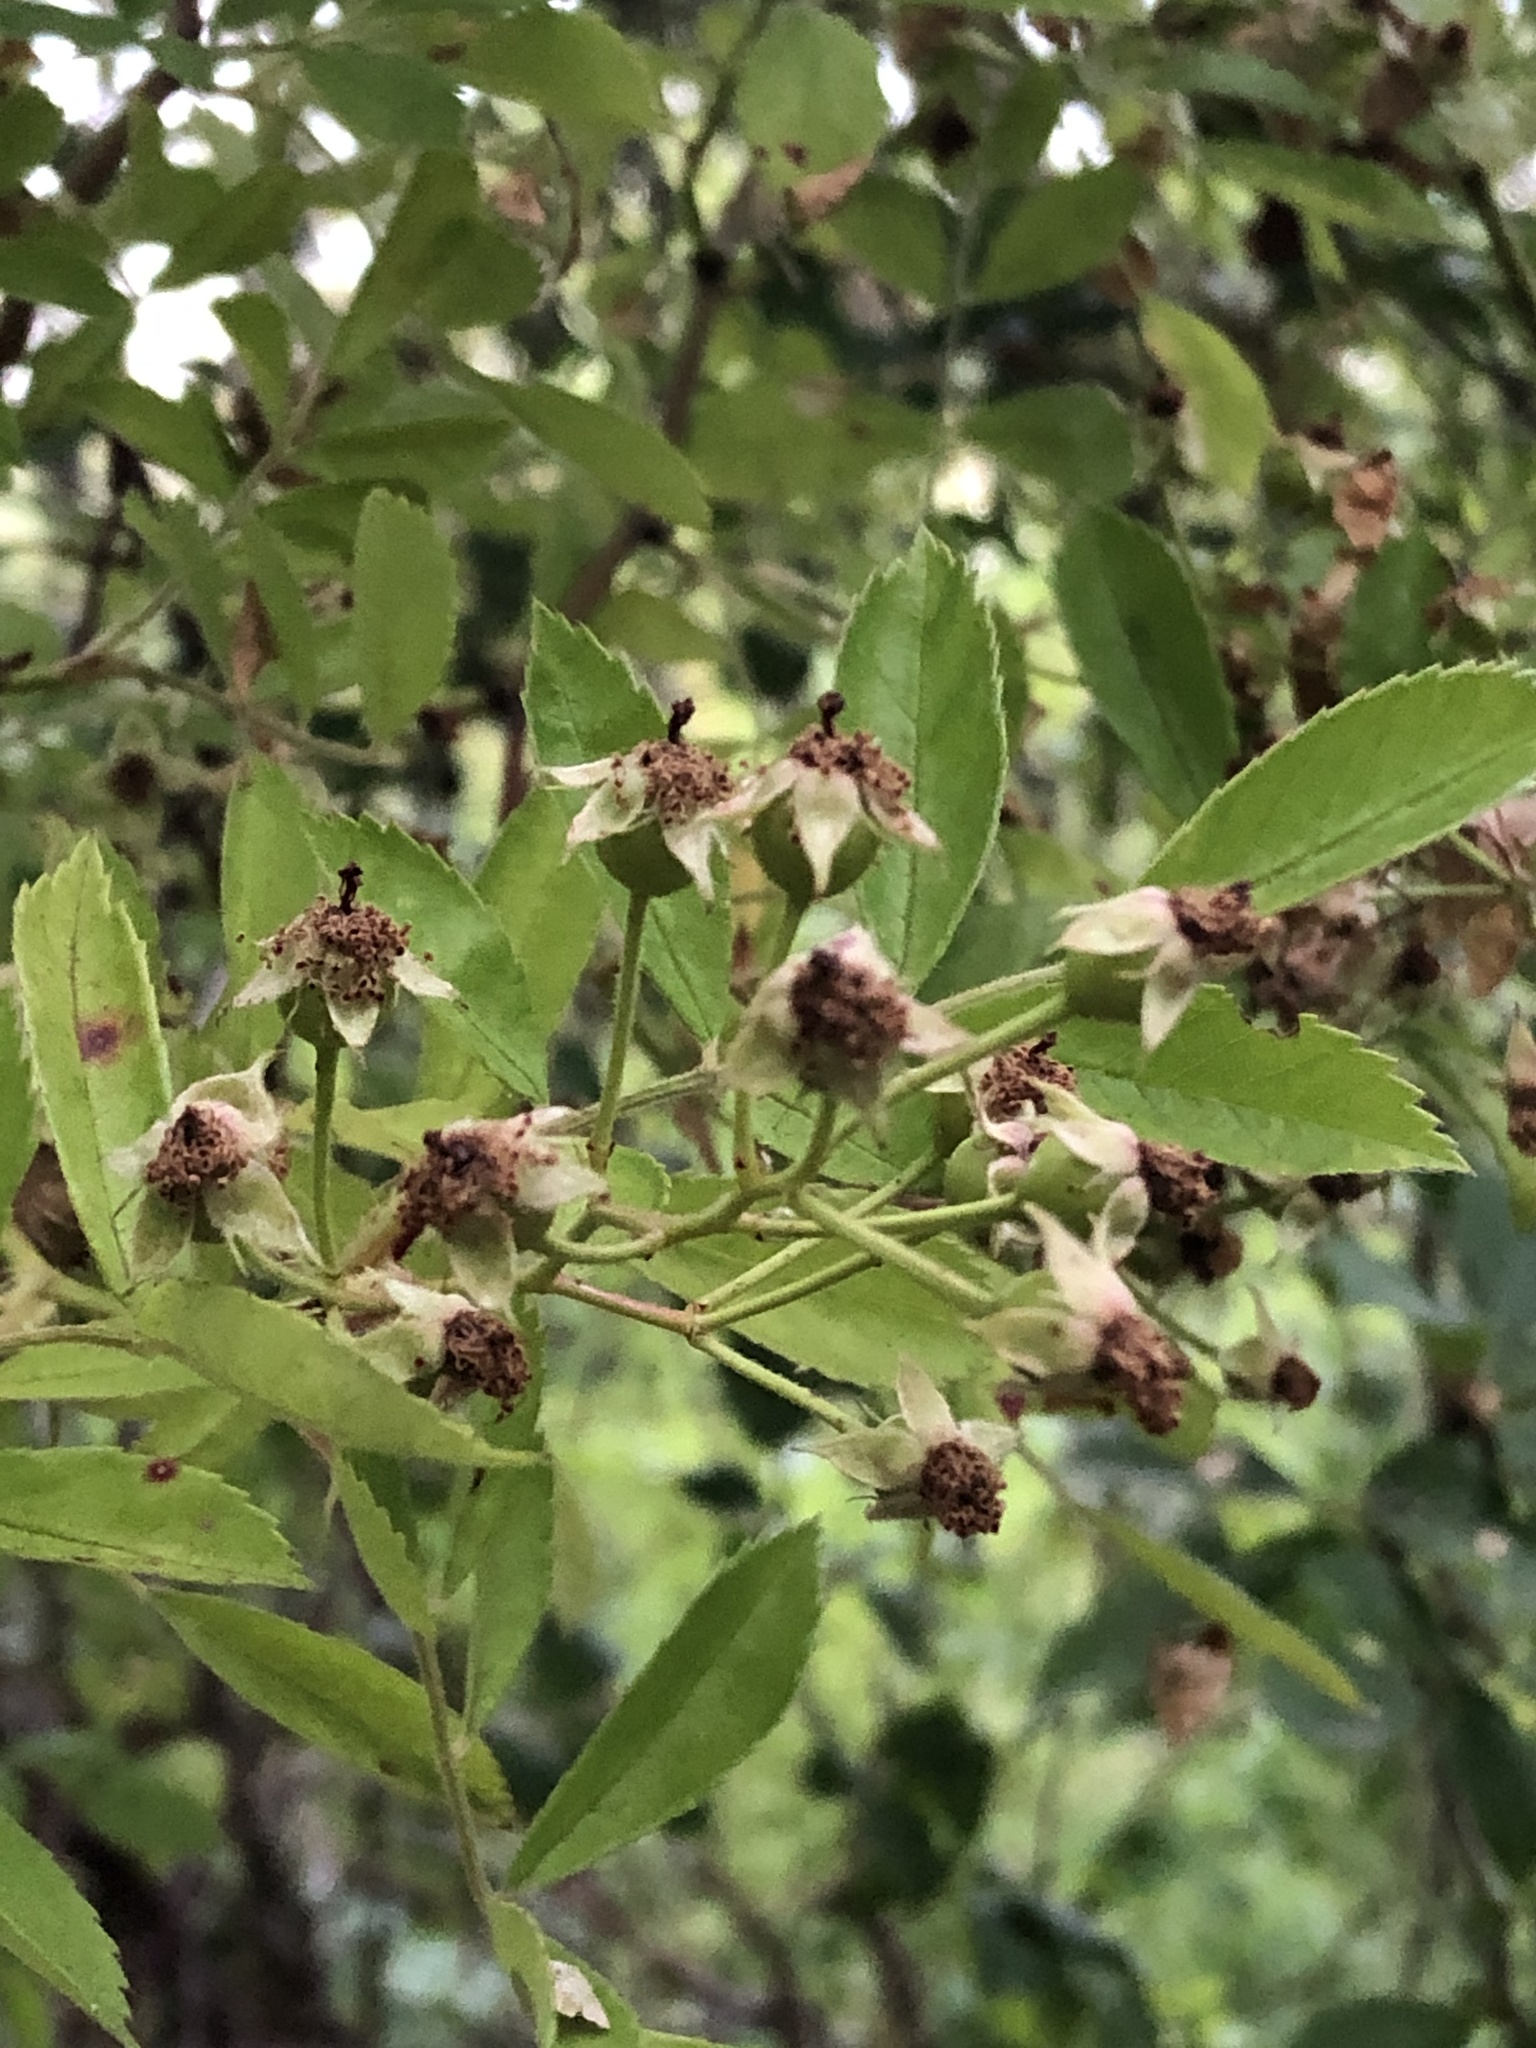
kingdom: Plantae
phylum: Tracheophyta
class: Magnoliopsida
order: Rosales
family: Rosaceae
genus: Rosa
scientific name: Rosa multiflora
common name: Multiflora rose
